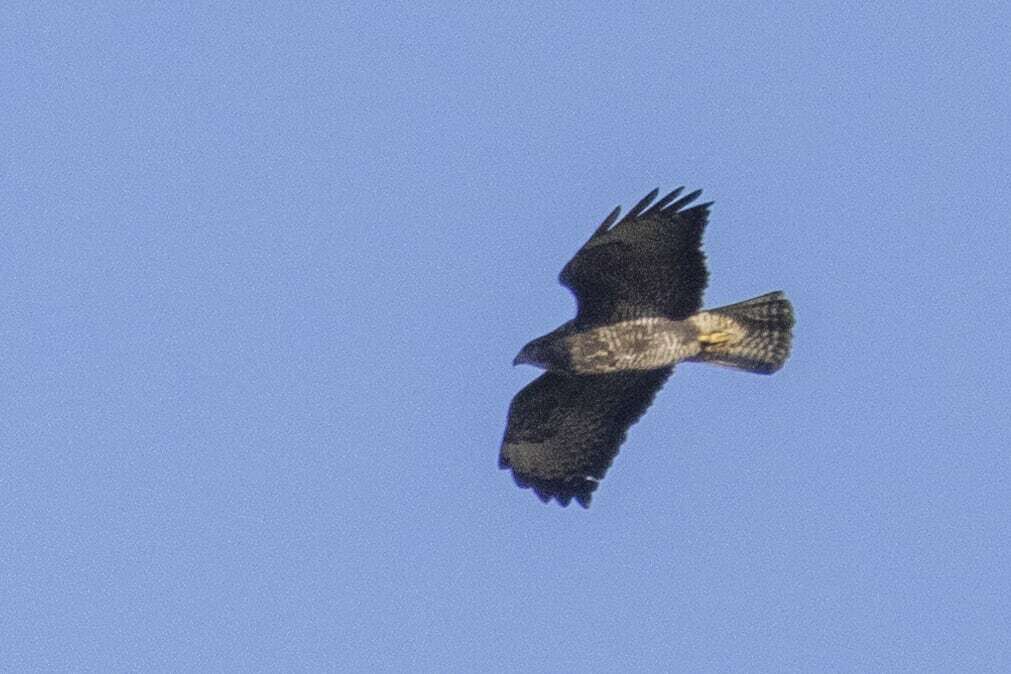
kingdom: Animalia
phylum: Chordata
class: Aves
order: Accipitriformes
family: Accipitridae
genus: Buteo
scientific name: Buteo buteo
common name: Common buzzard
